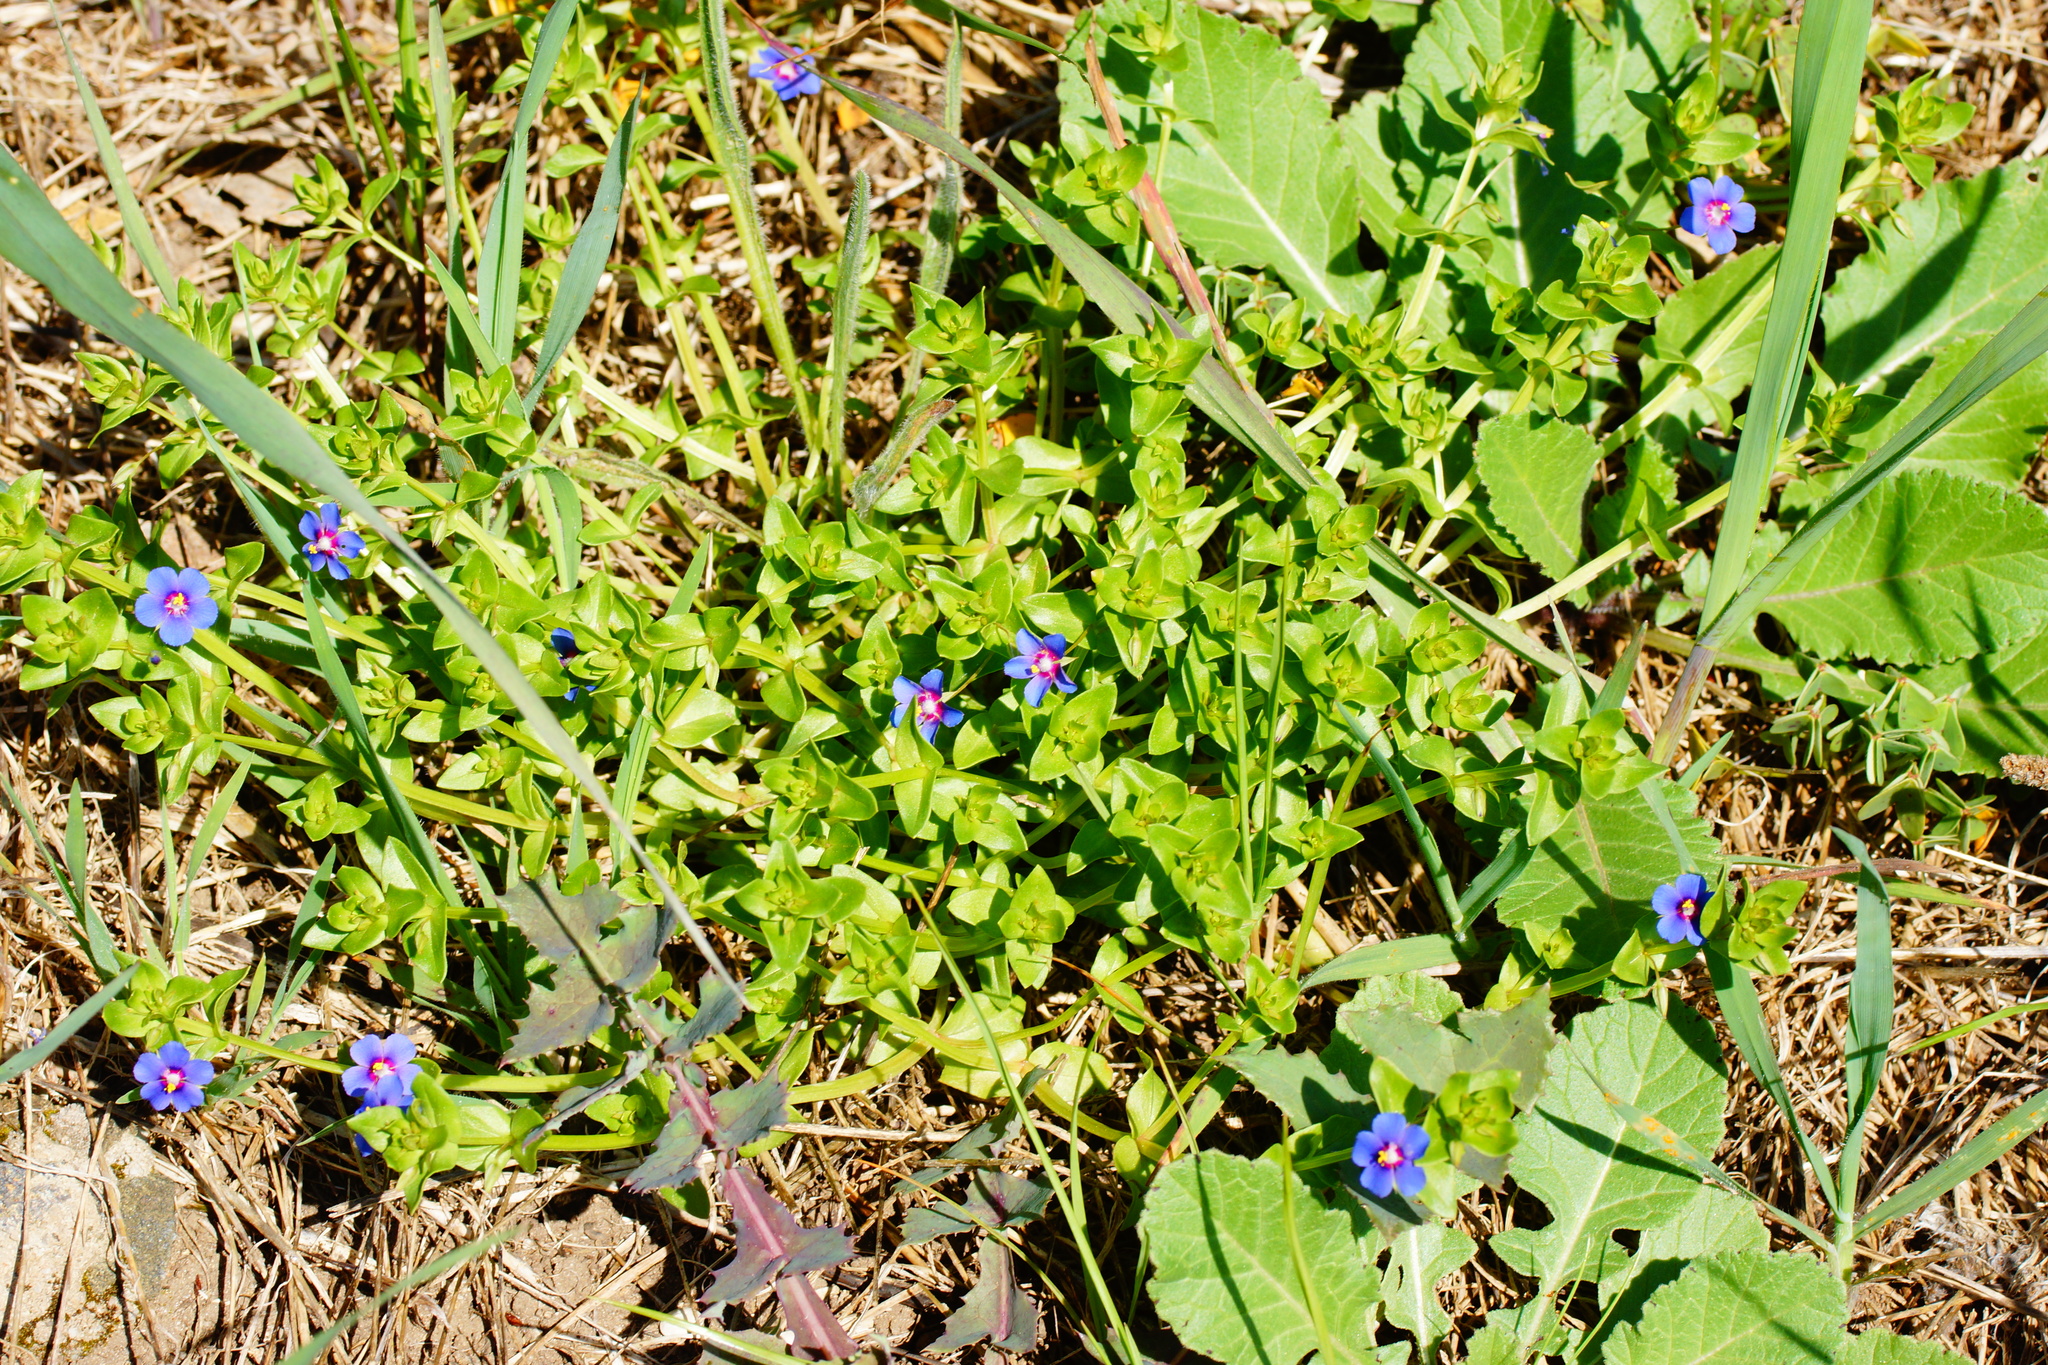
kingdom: Plantae
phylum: Tracheophyta
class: Magnoliopsida
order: Ericales
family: Primulaceae
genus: Lysimachia
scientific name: Lysimachia loeflingii
